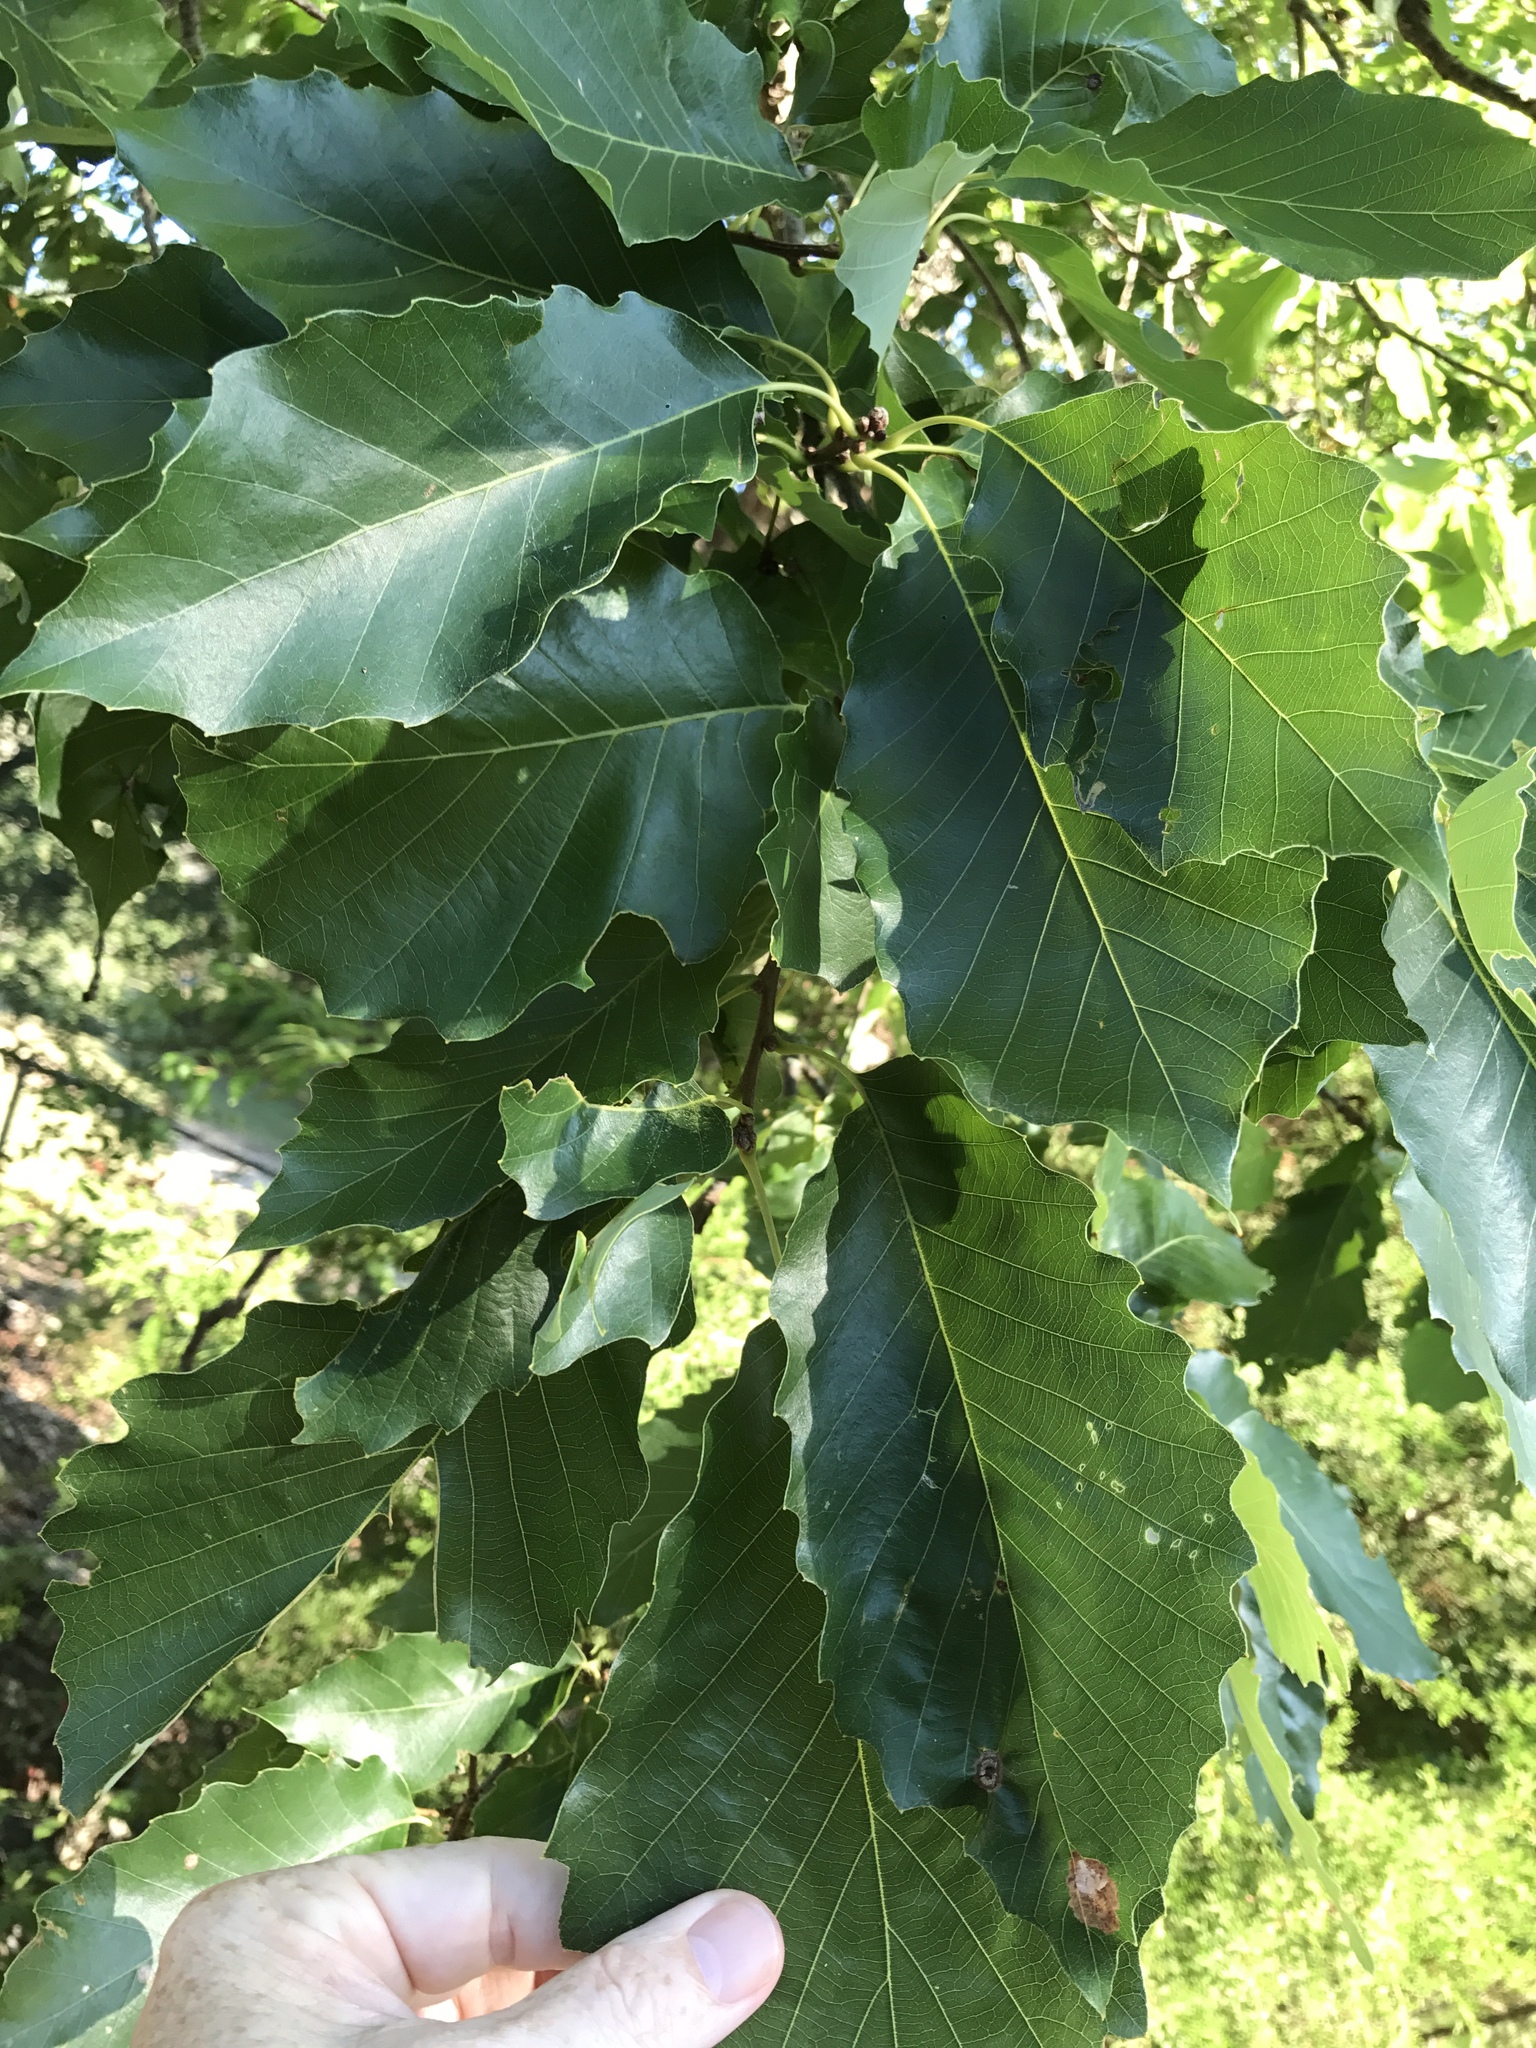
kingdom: Plantae
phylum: Tracheophyta
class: Magnoliopsida
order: Fagales
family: Fagaceae
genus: Quercus
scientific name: Quercus muehlenbergii
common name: Chinkapin oak
